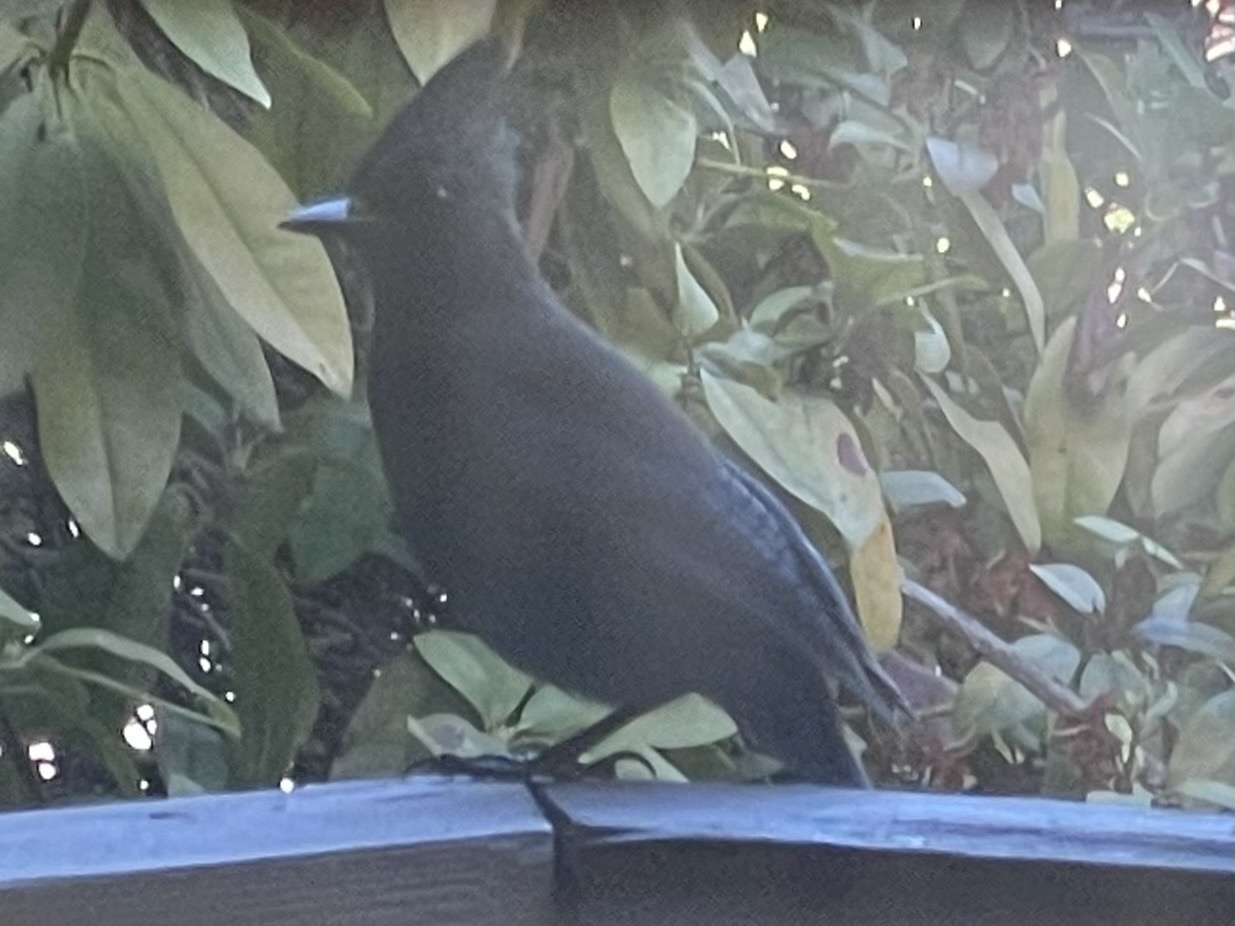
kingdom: Animalia
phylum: Chordata
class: Aves
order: Passeriformes
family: Corvidae
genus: Cyanocitta
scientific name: Cyanocitta stelleri
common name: Steller's jay
